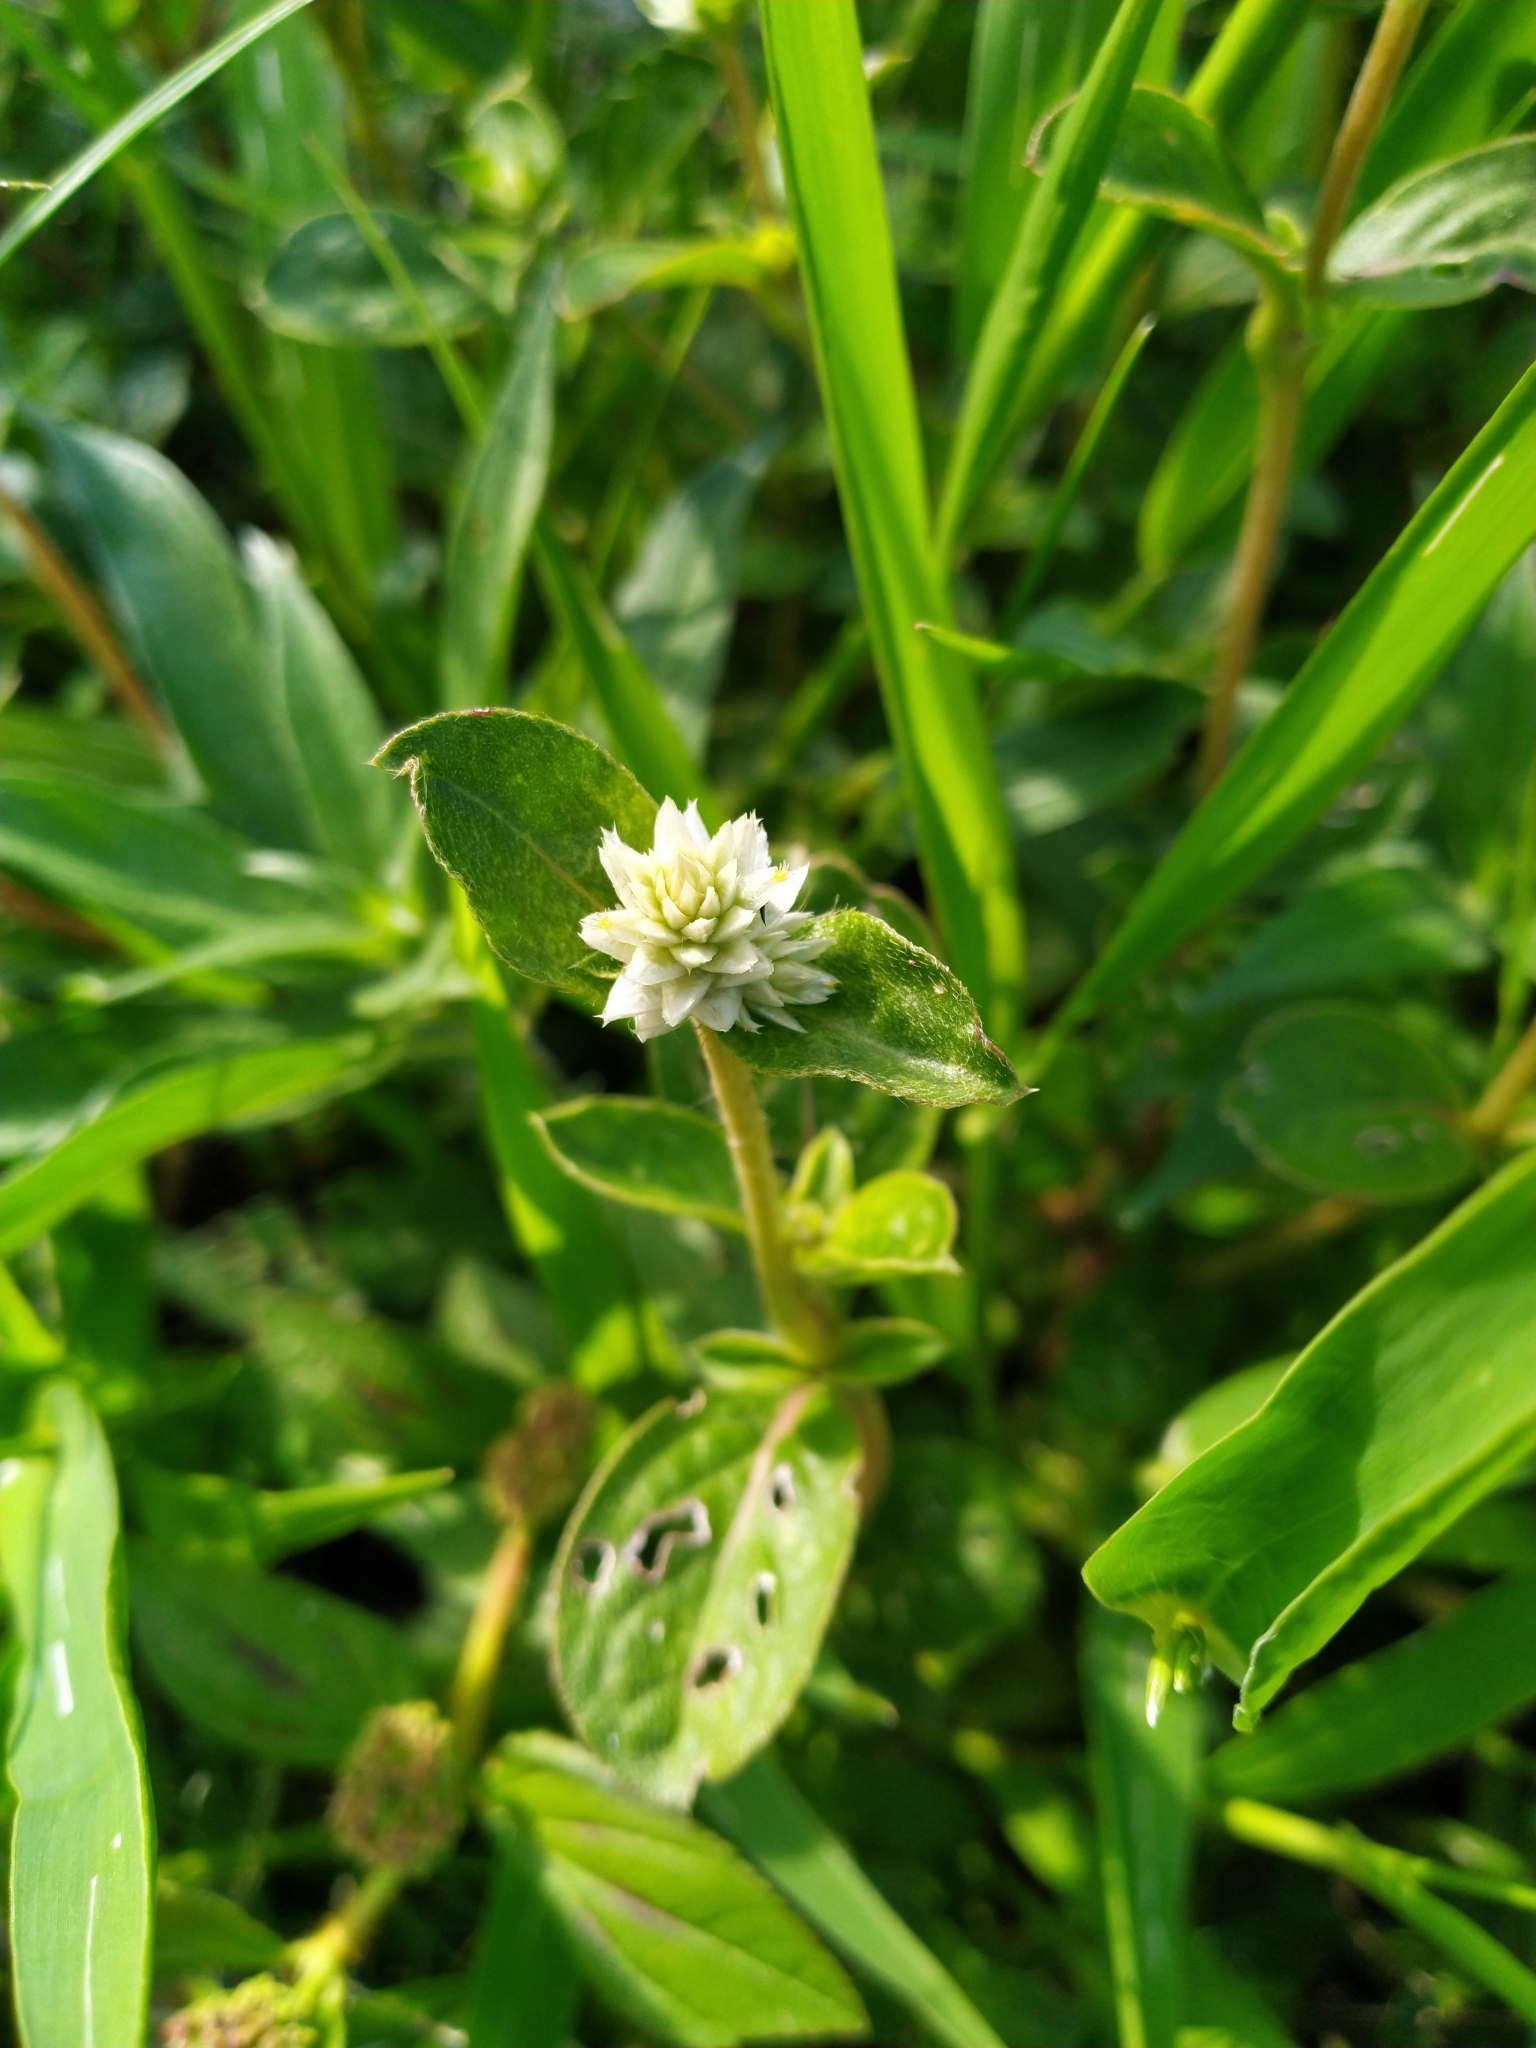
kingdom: Plantae
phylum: Tracheophyta
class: Magnoliopsida
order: Caryophyllales
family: Amaranthaceae
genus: Gomphrena
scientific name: Gomphrena serrata
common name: Arrasa con todo
